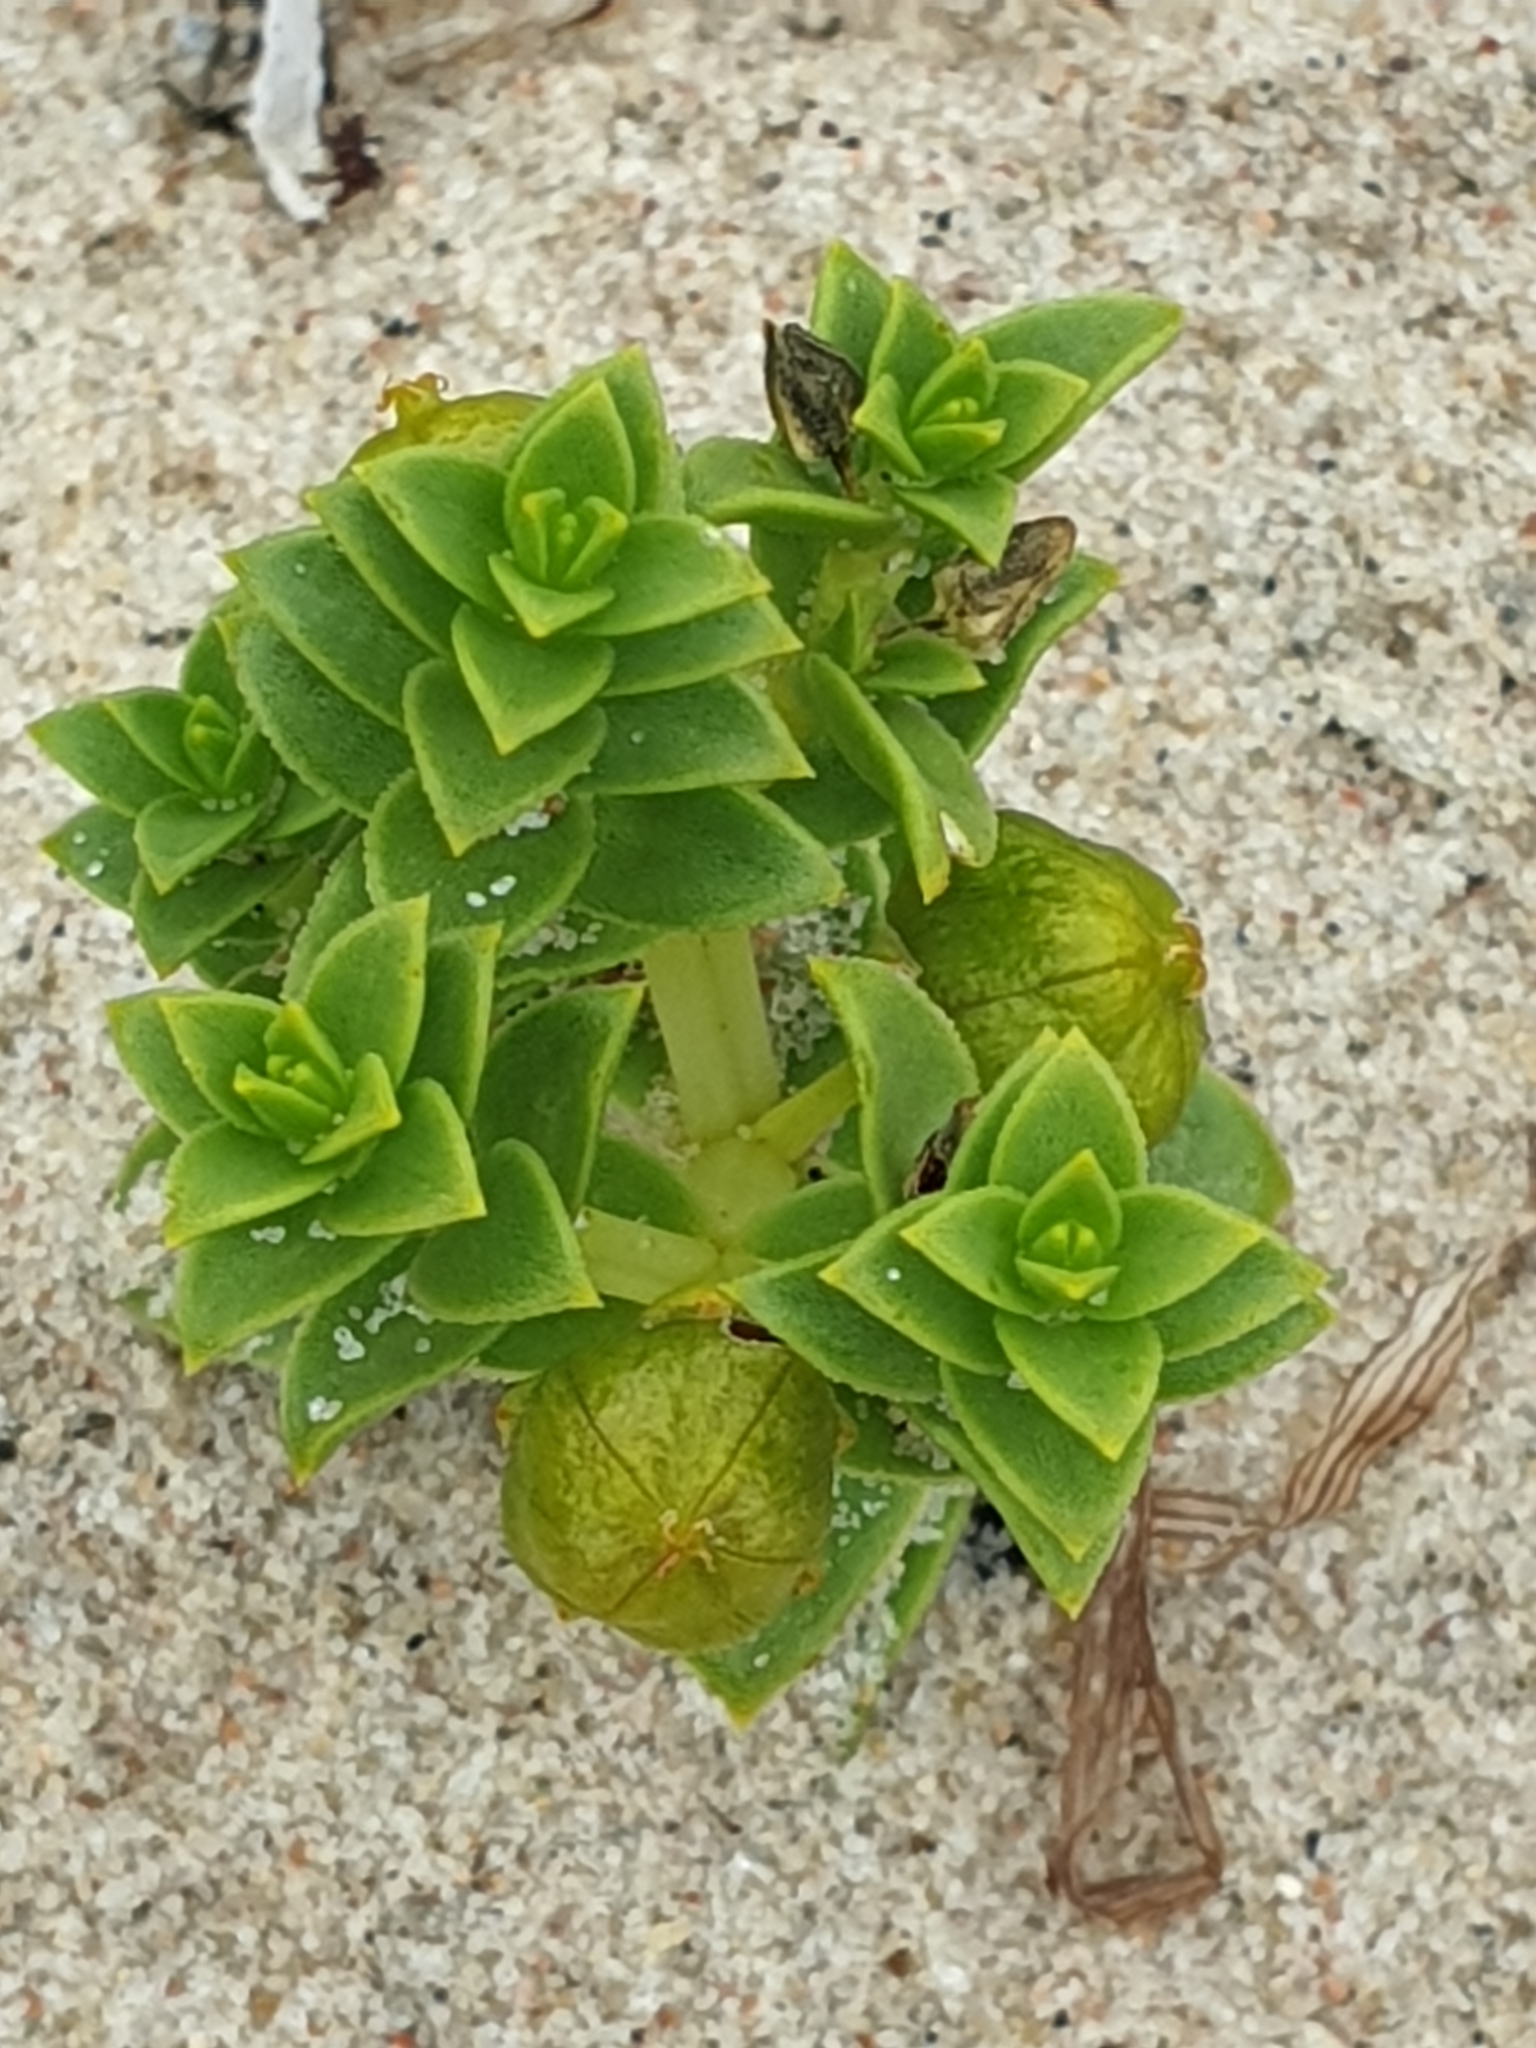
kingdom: Plantae
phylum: Tracheophyta
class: Magnoliopsida
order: Caryophyllales
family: Caryophyllaceae
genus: Honckenya
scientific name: Honckenya peploides
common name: Sea sandwort
